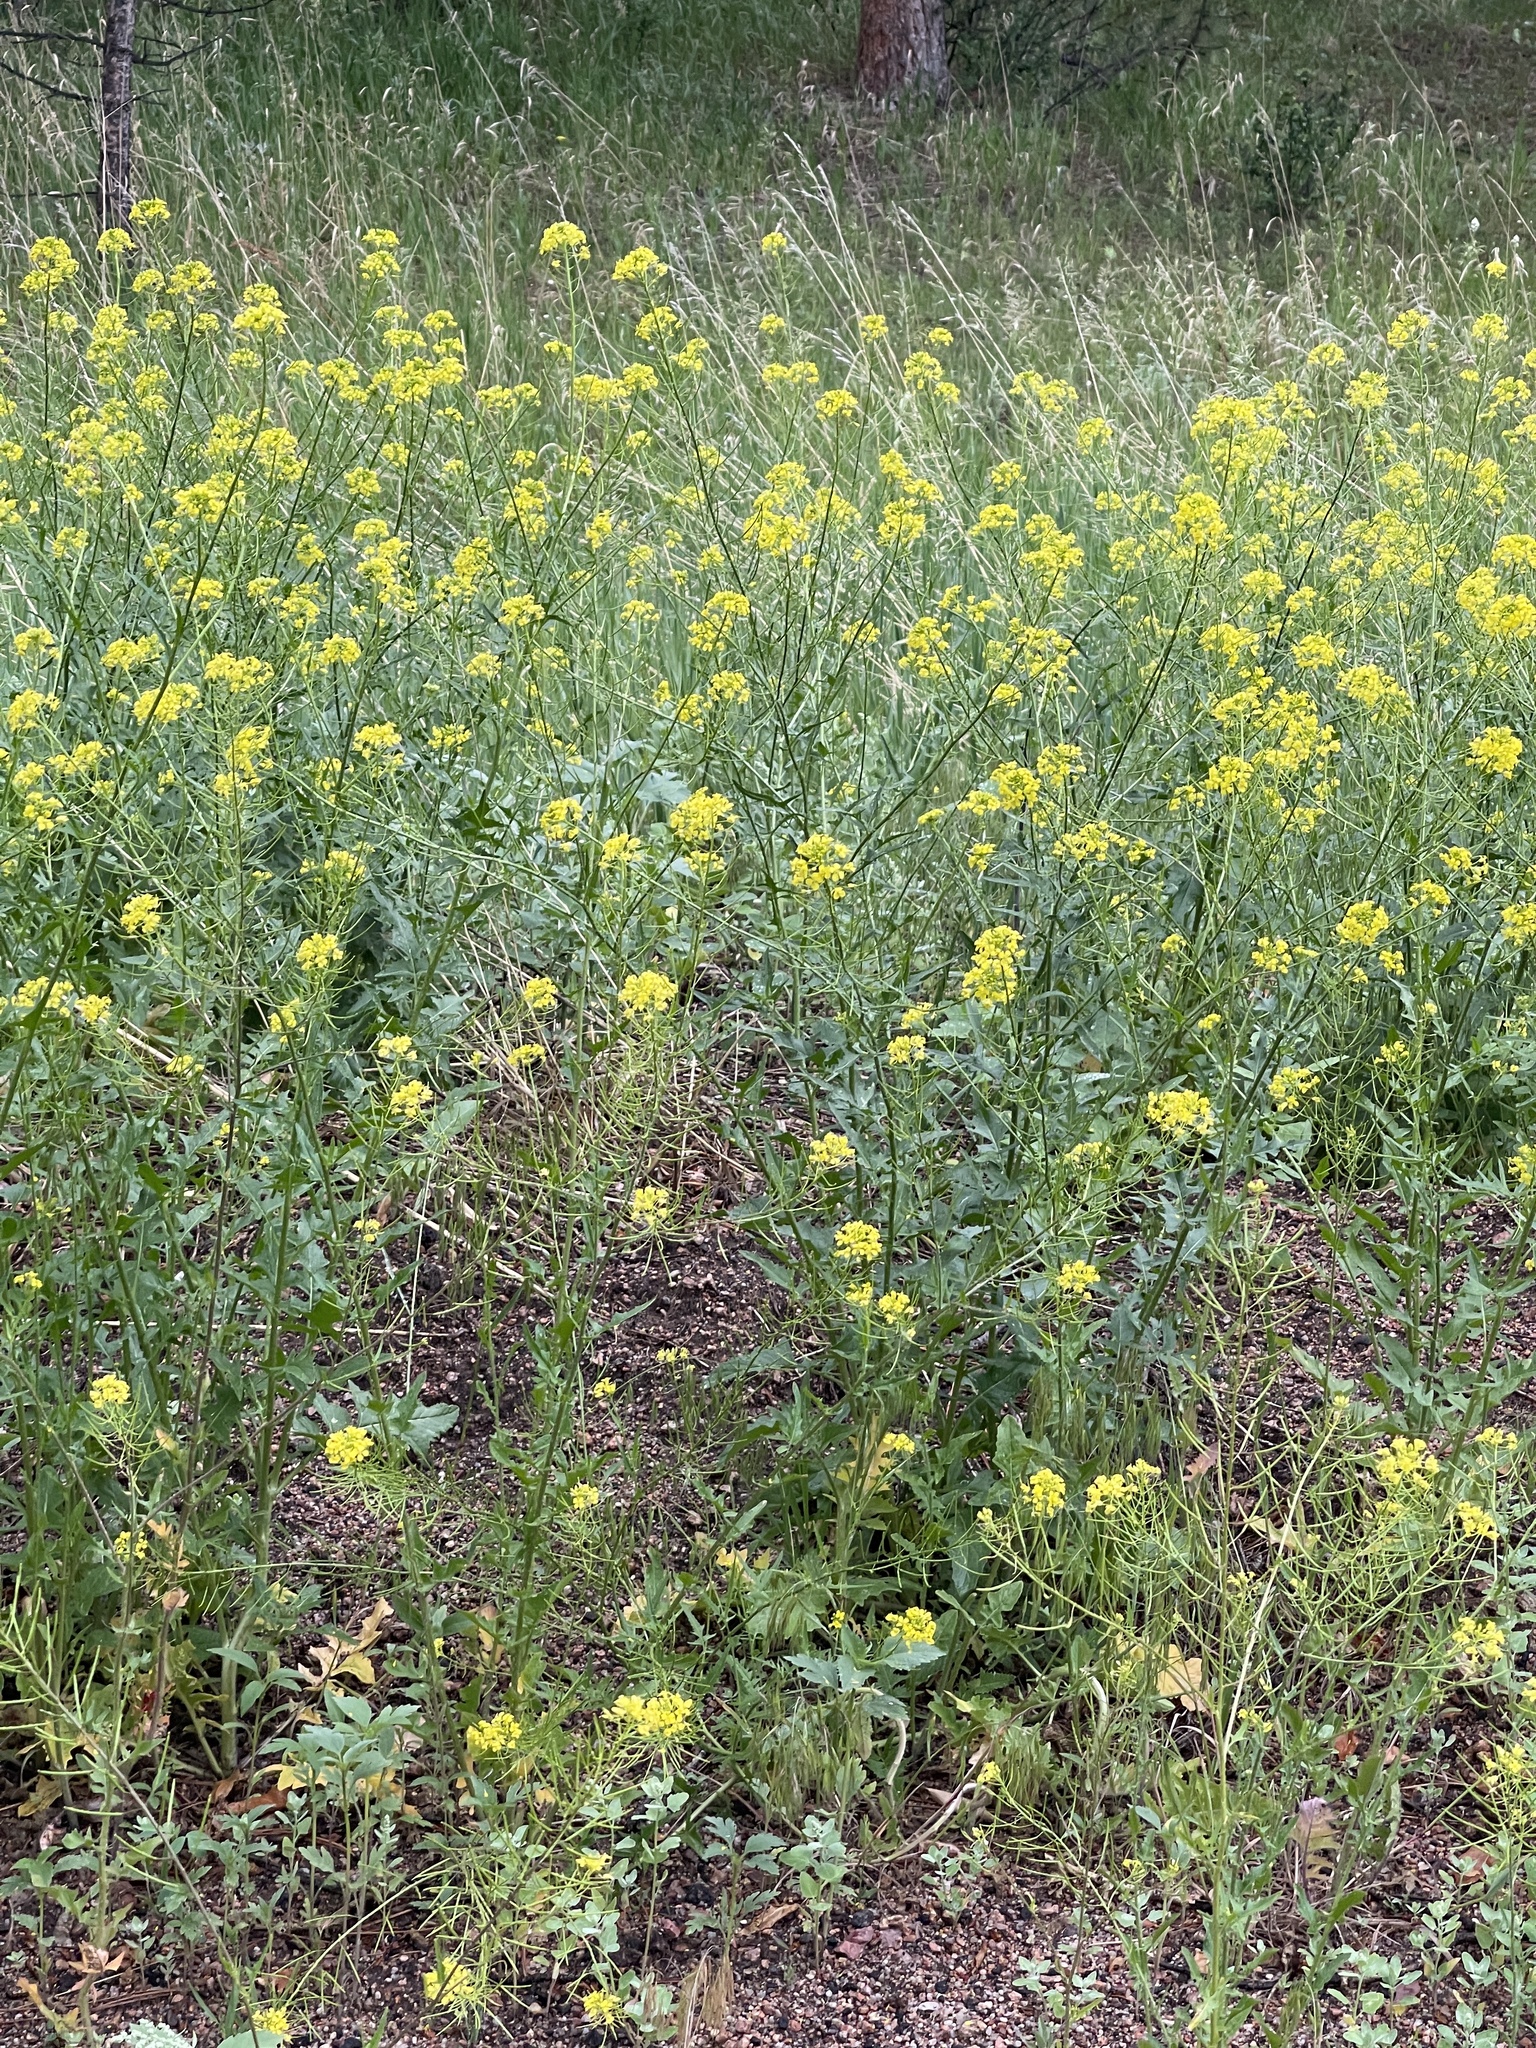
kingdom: Plantae
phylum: Tracheophyta
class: Magnoliopsida
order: Brassicales
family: Brassicaceae
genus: Sisymbrium
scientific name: Sisymbrium loeselii
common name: False london-rocket
